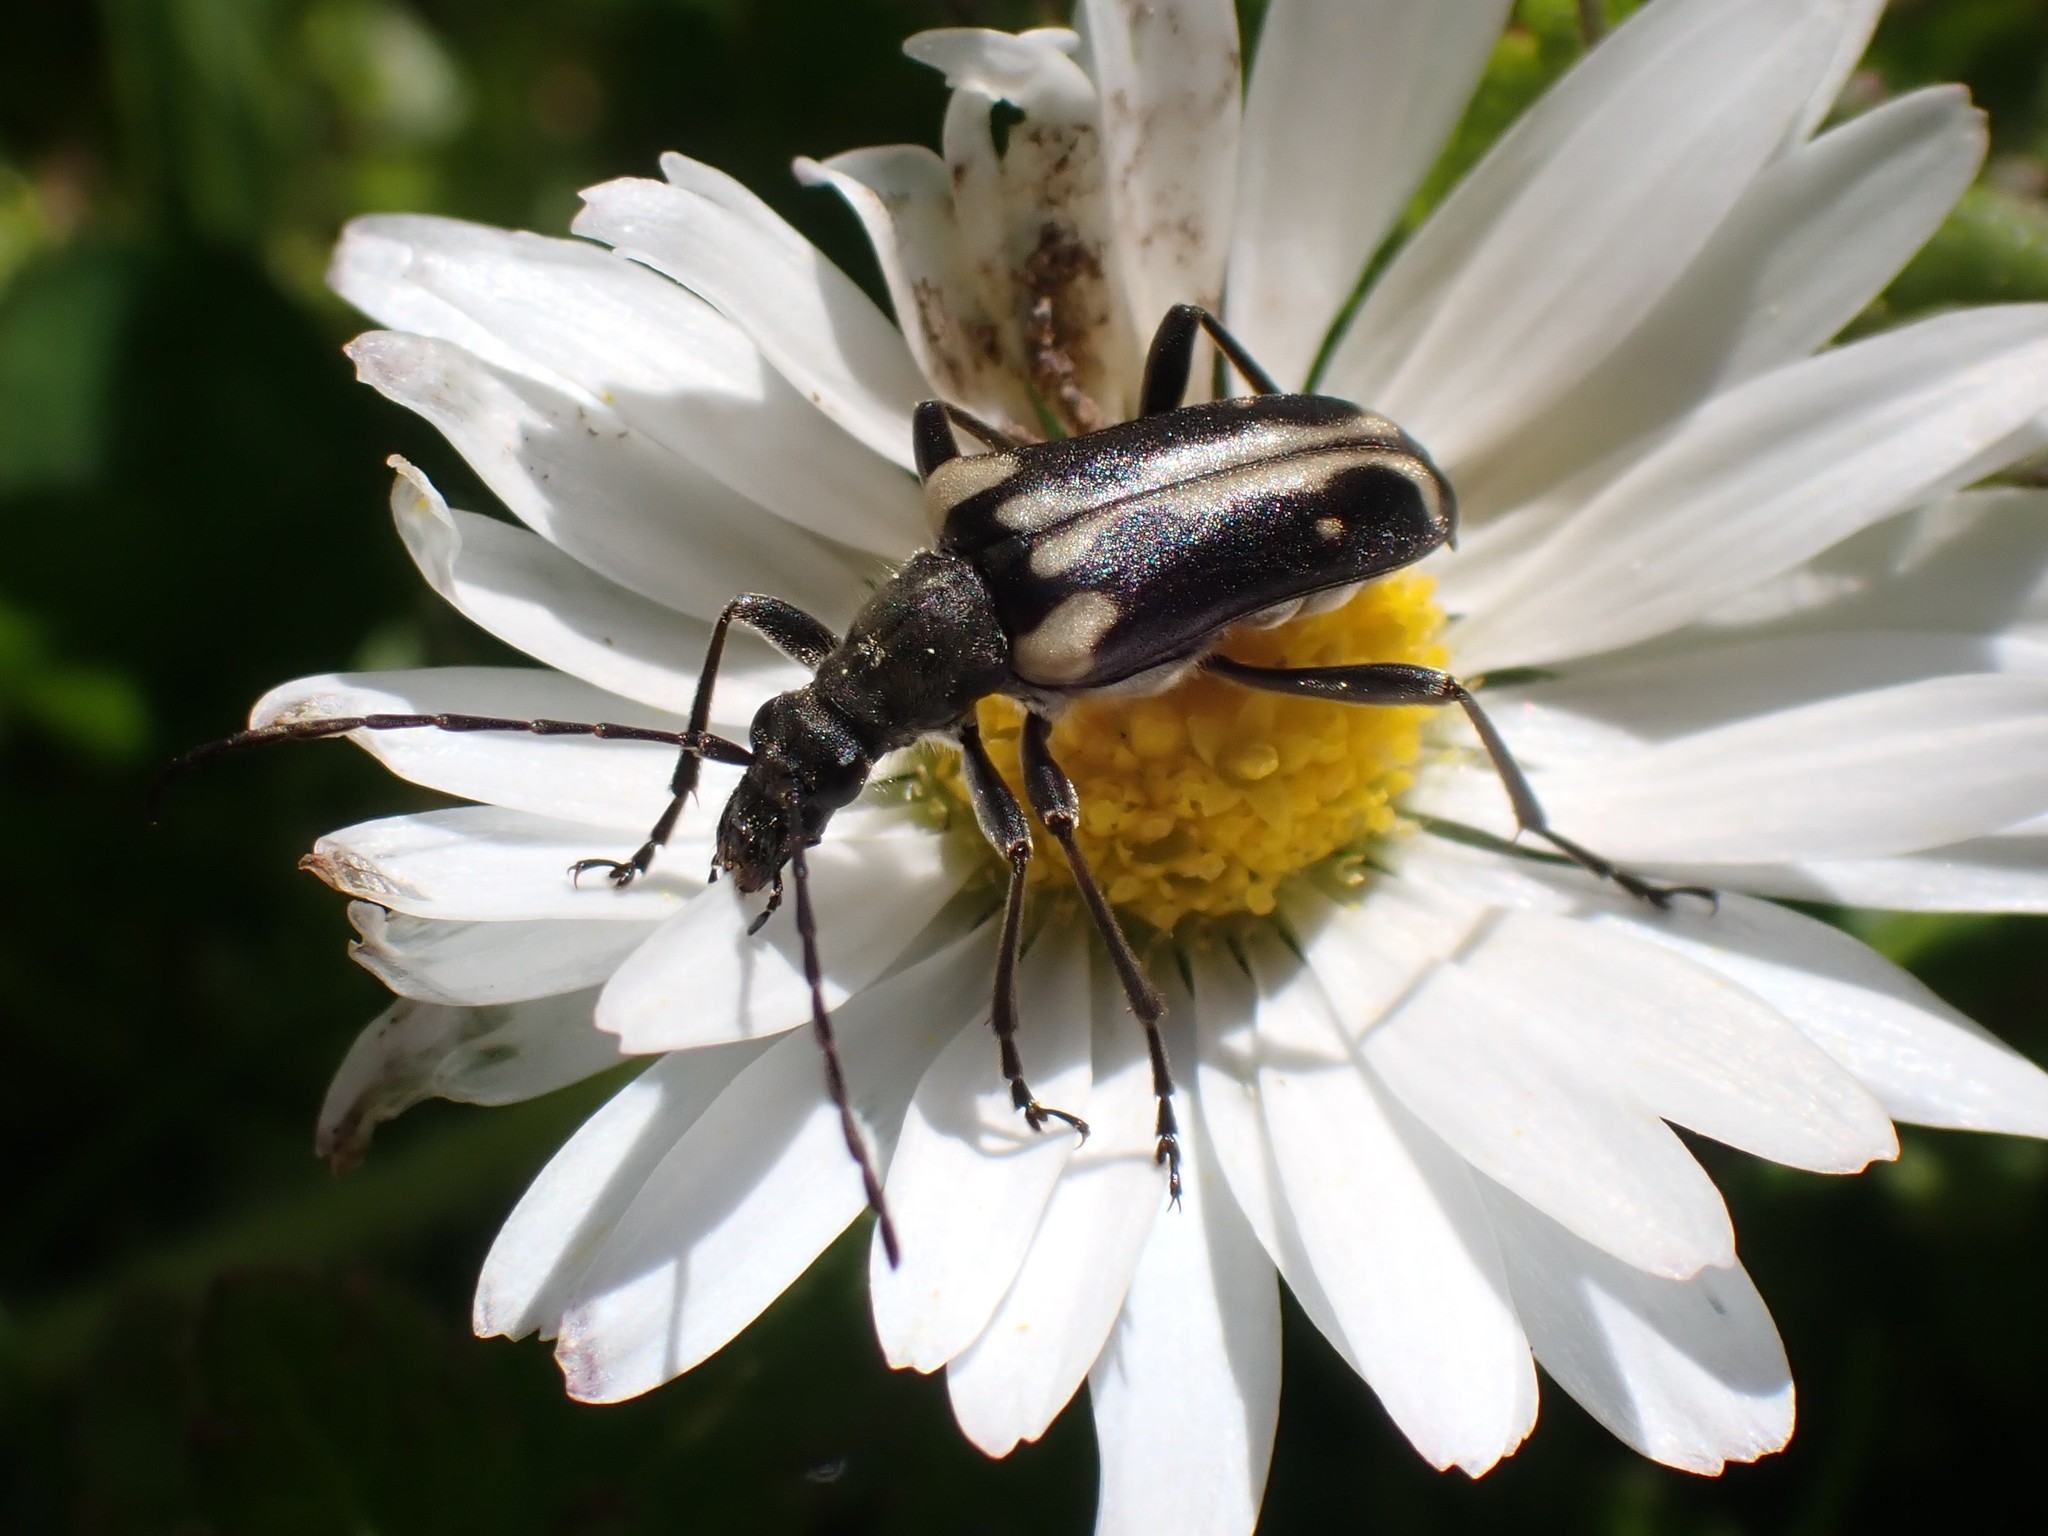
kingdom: Animalia
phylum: Arthropoda
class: Insecta
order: Coleoptera
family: Cerambycidae
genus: Evodinus
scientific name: Evodinus monticola
